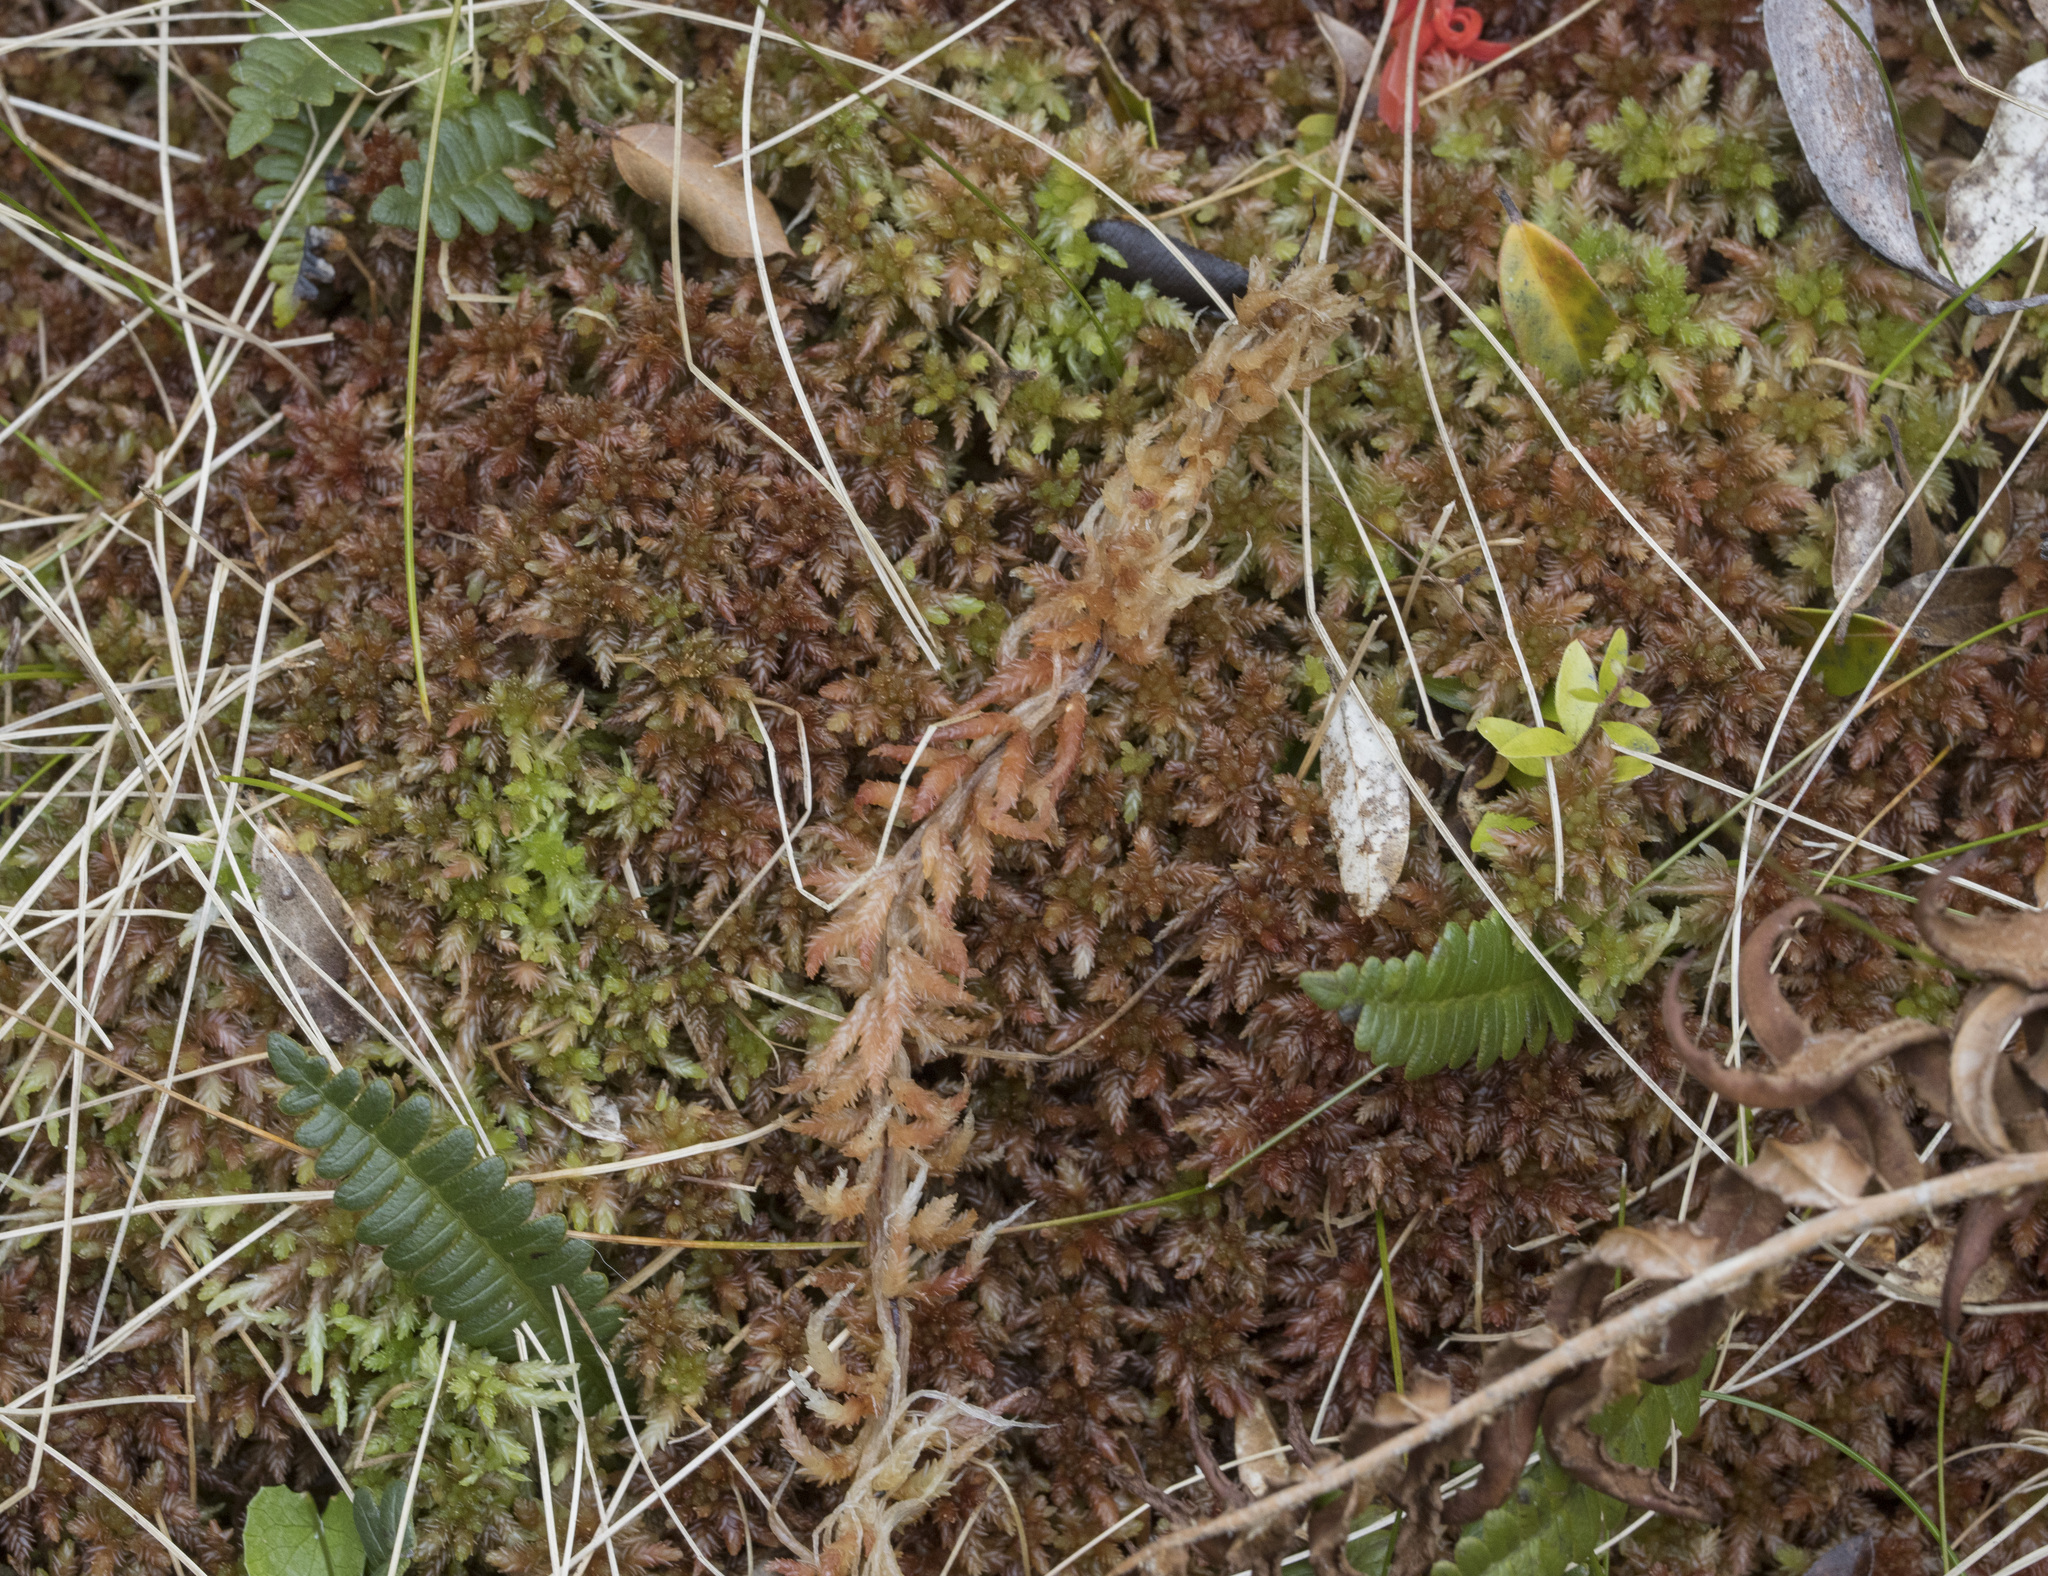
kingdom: Plantae
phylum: Bryophyta
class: Sphagnopsida
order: Sphagnales
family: Sphagnaceae
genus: Sphagnum
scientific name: Sphagnum magellanicum
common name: Magellan's peat moss
